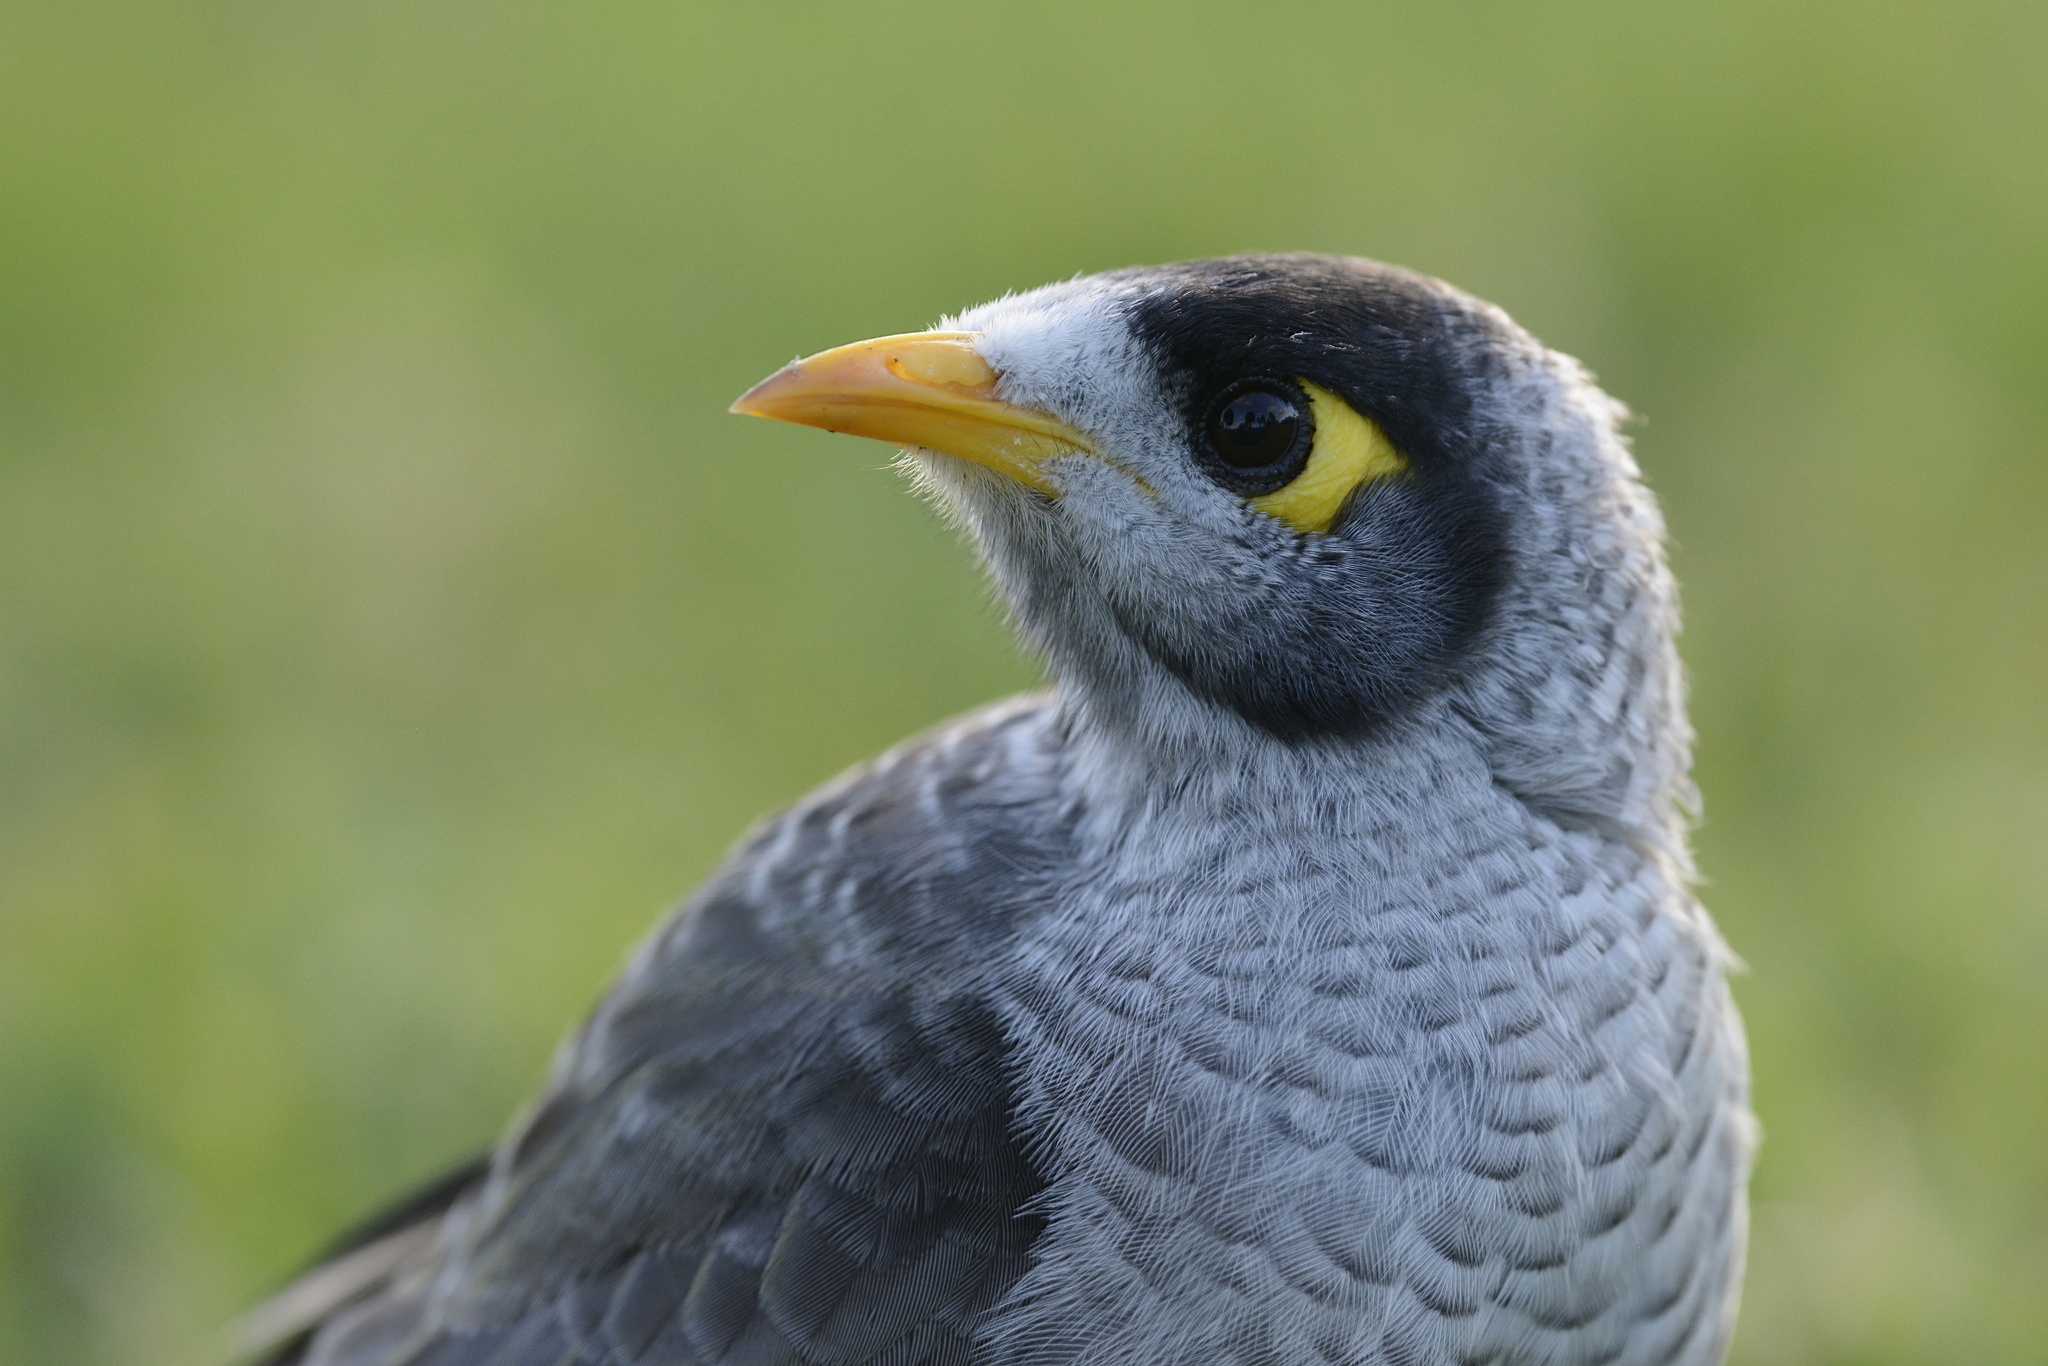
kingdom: Animalia
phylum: Chordata
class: Aves
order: Passeriformes
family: Meliphagidae
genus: Manorina
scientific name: Manorina melanocephala
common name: Noisy miner
